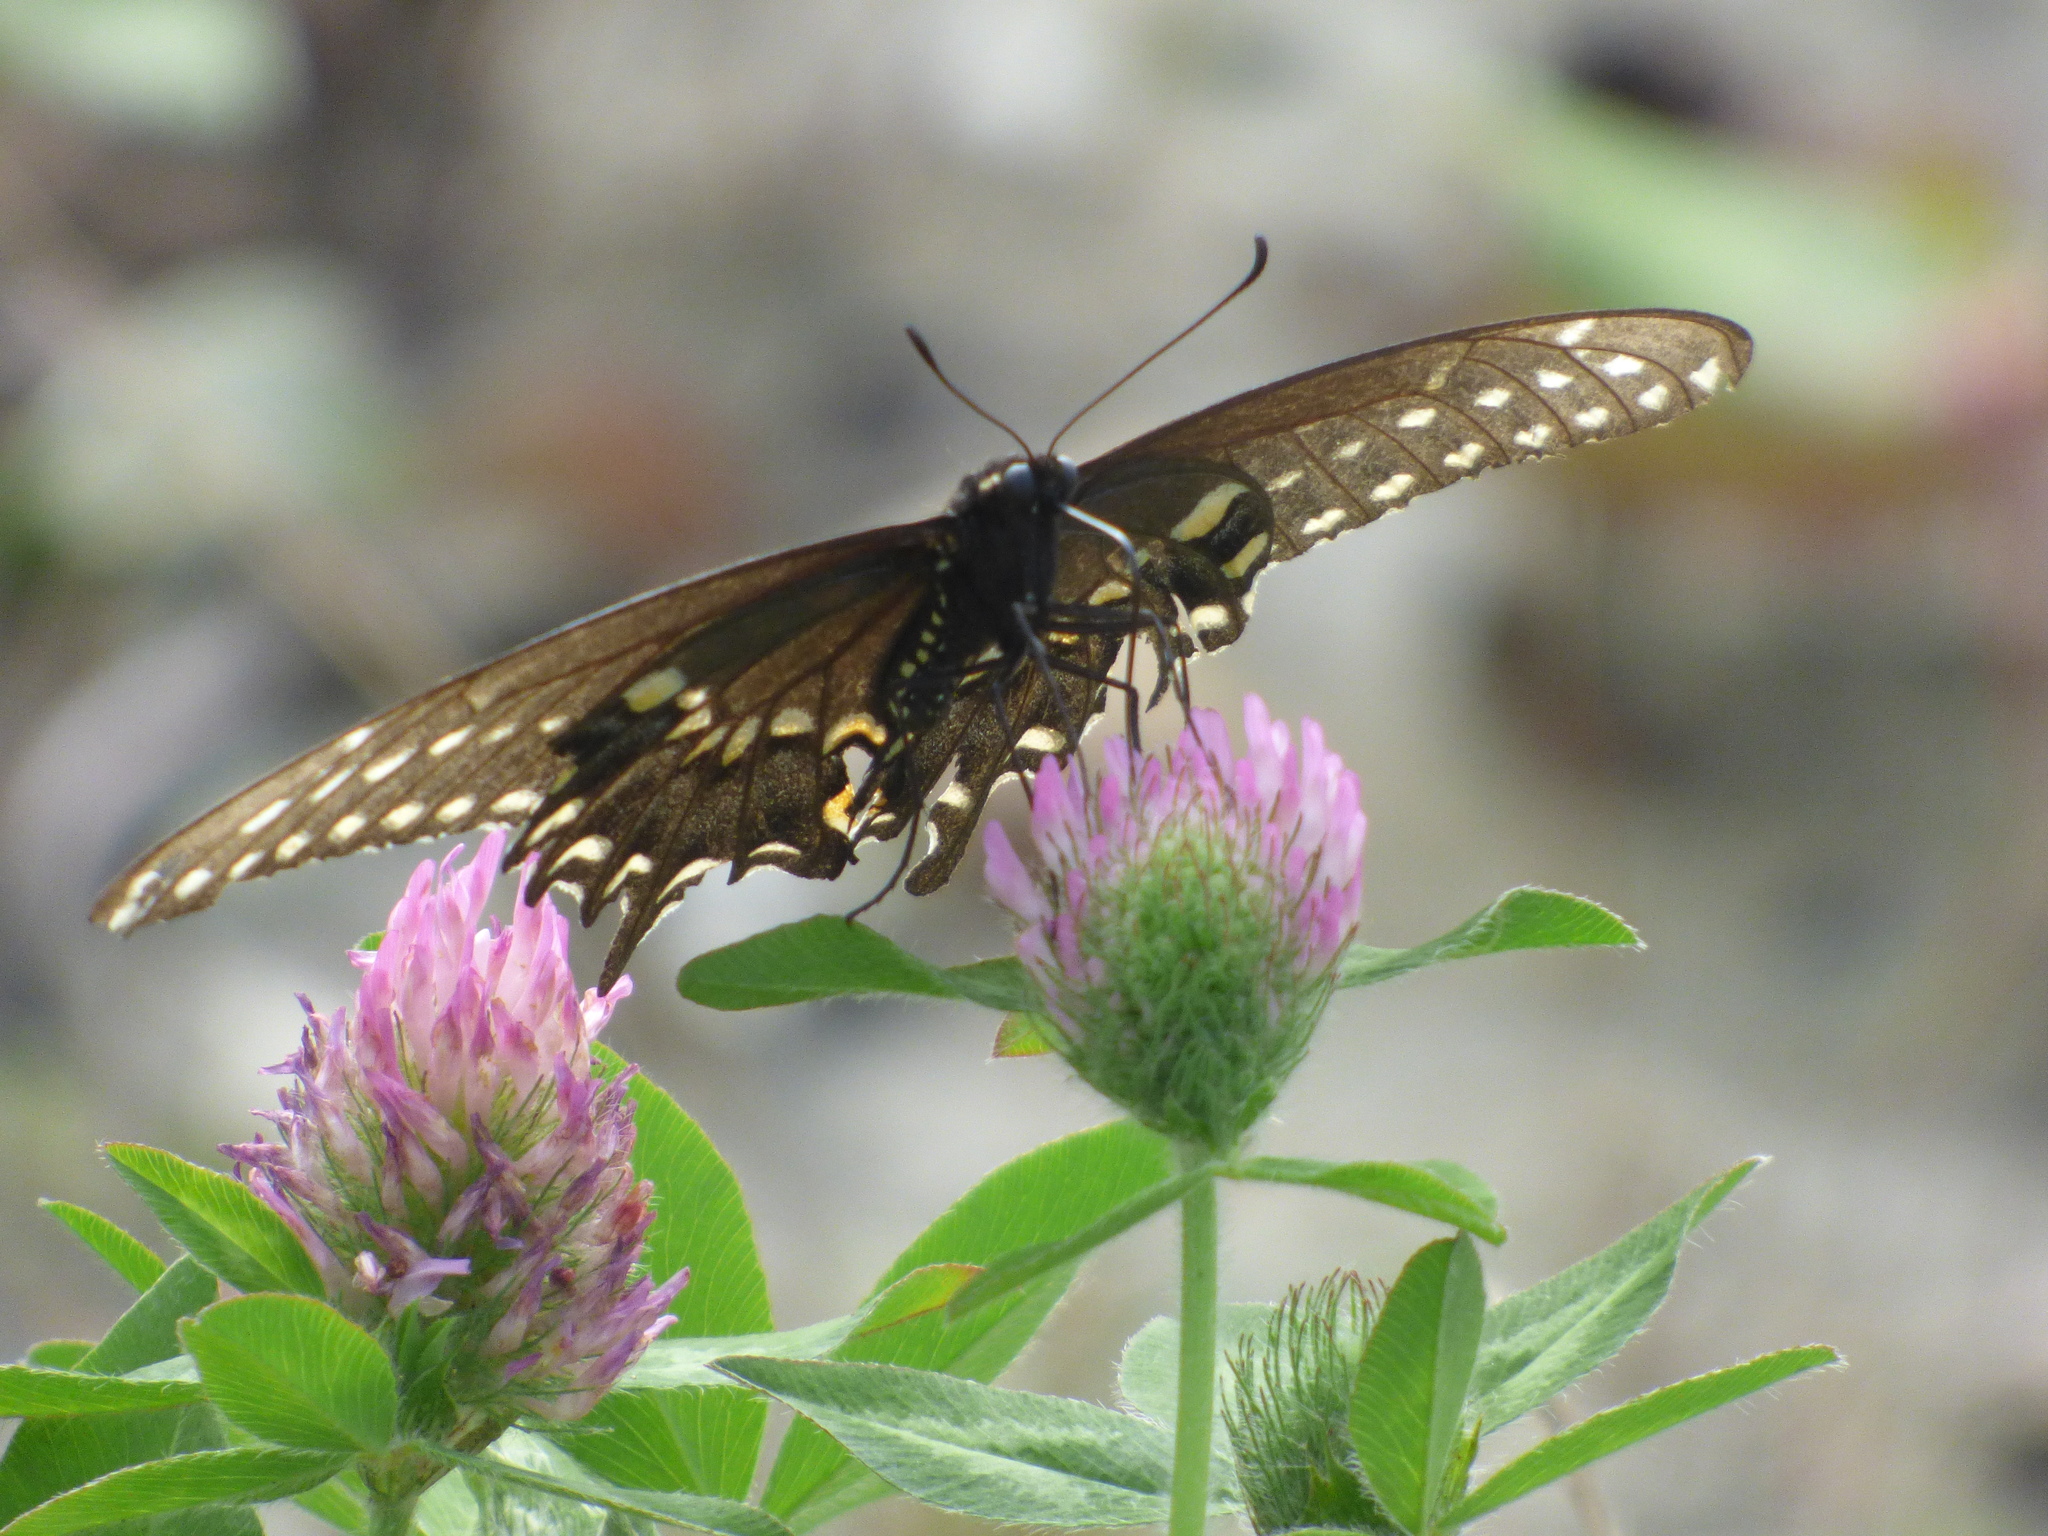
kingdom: Animalia
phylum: Arthropoda
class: Insecta
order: Lepidoptera
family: Papilionidae
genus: Papilio
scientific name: Papilio polyxenes
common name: Black swallowtail
